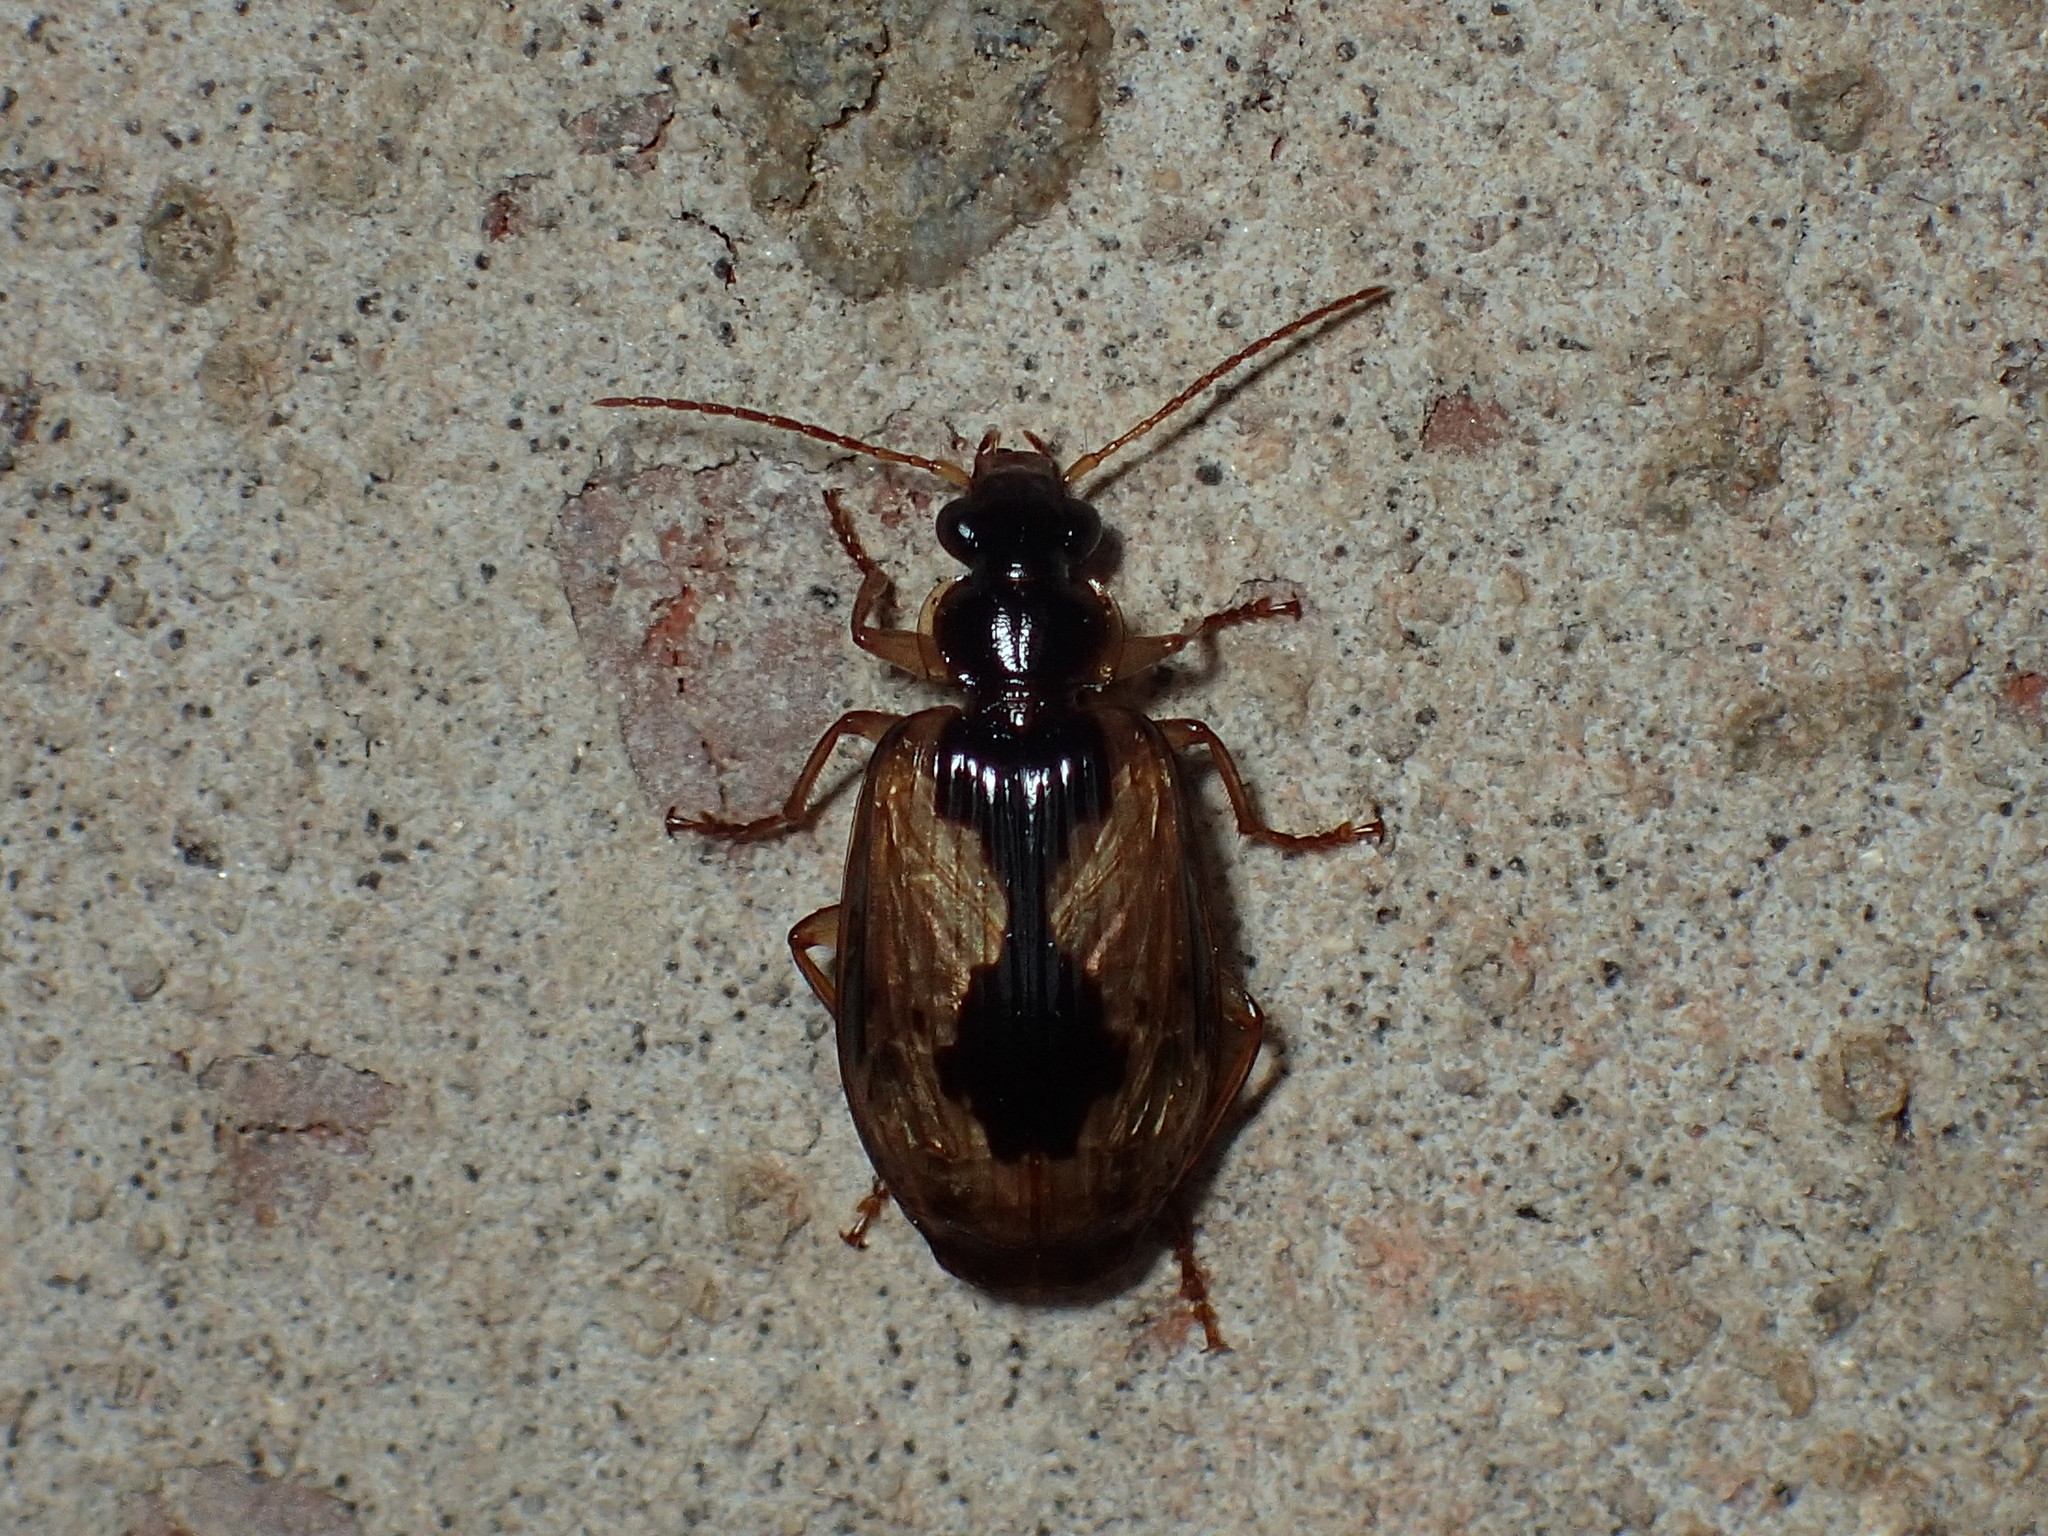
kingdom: Animalia
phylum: Arthropoda
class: Insecta
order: Coleoptera
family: Carabidae
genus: Lebia
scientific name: Lebia fuscata
